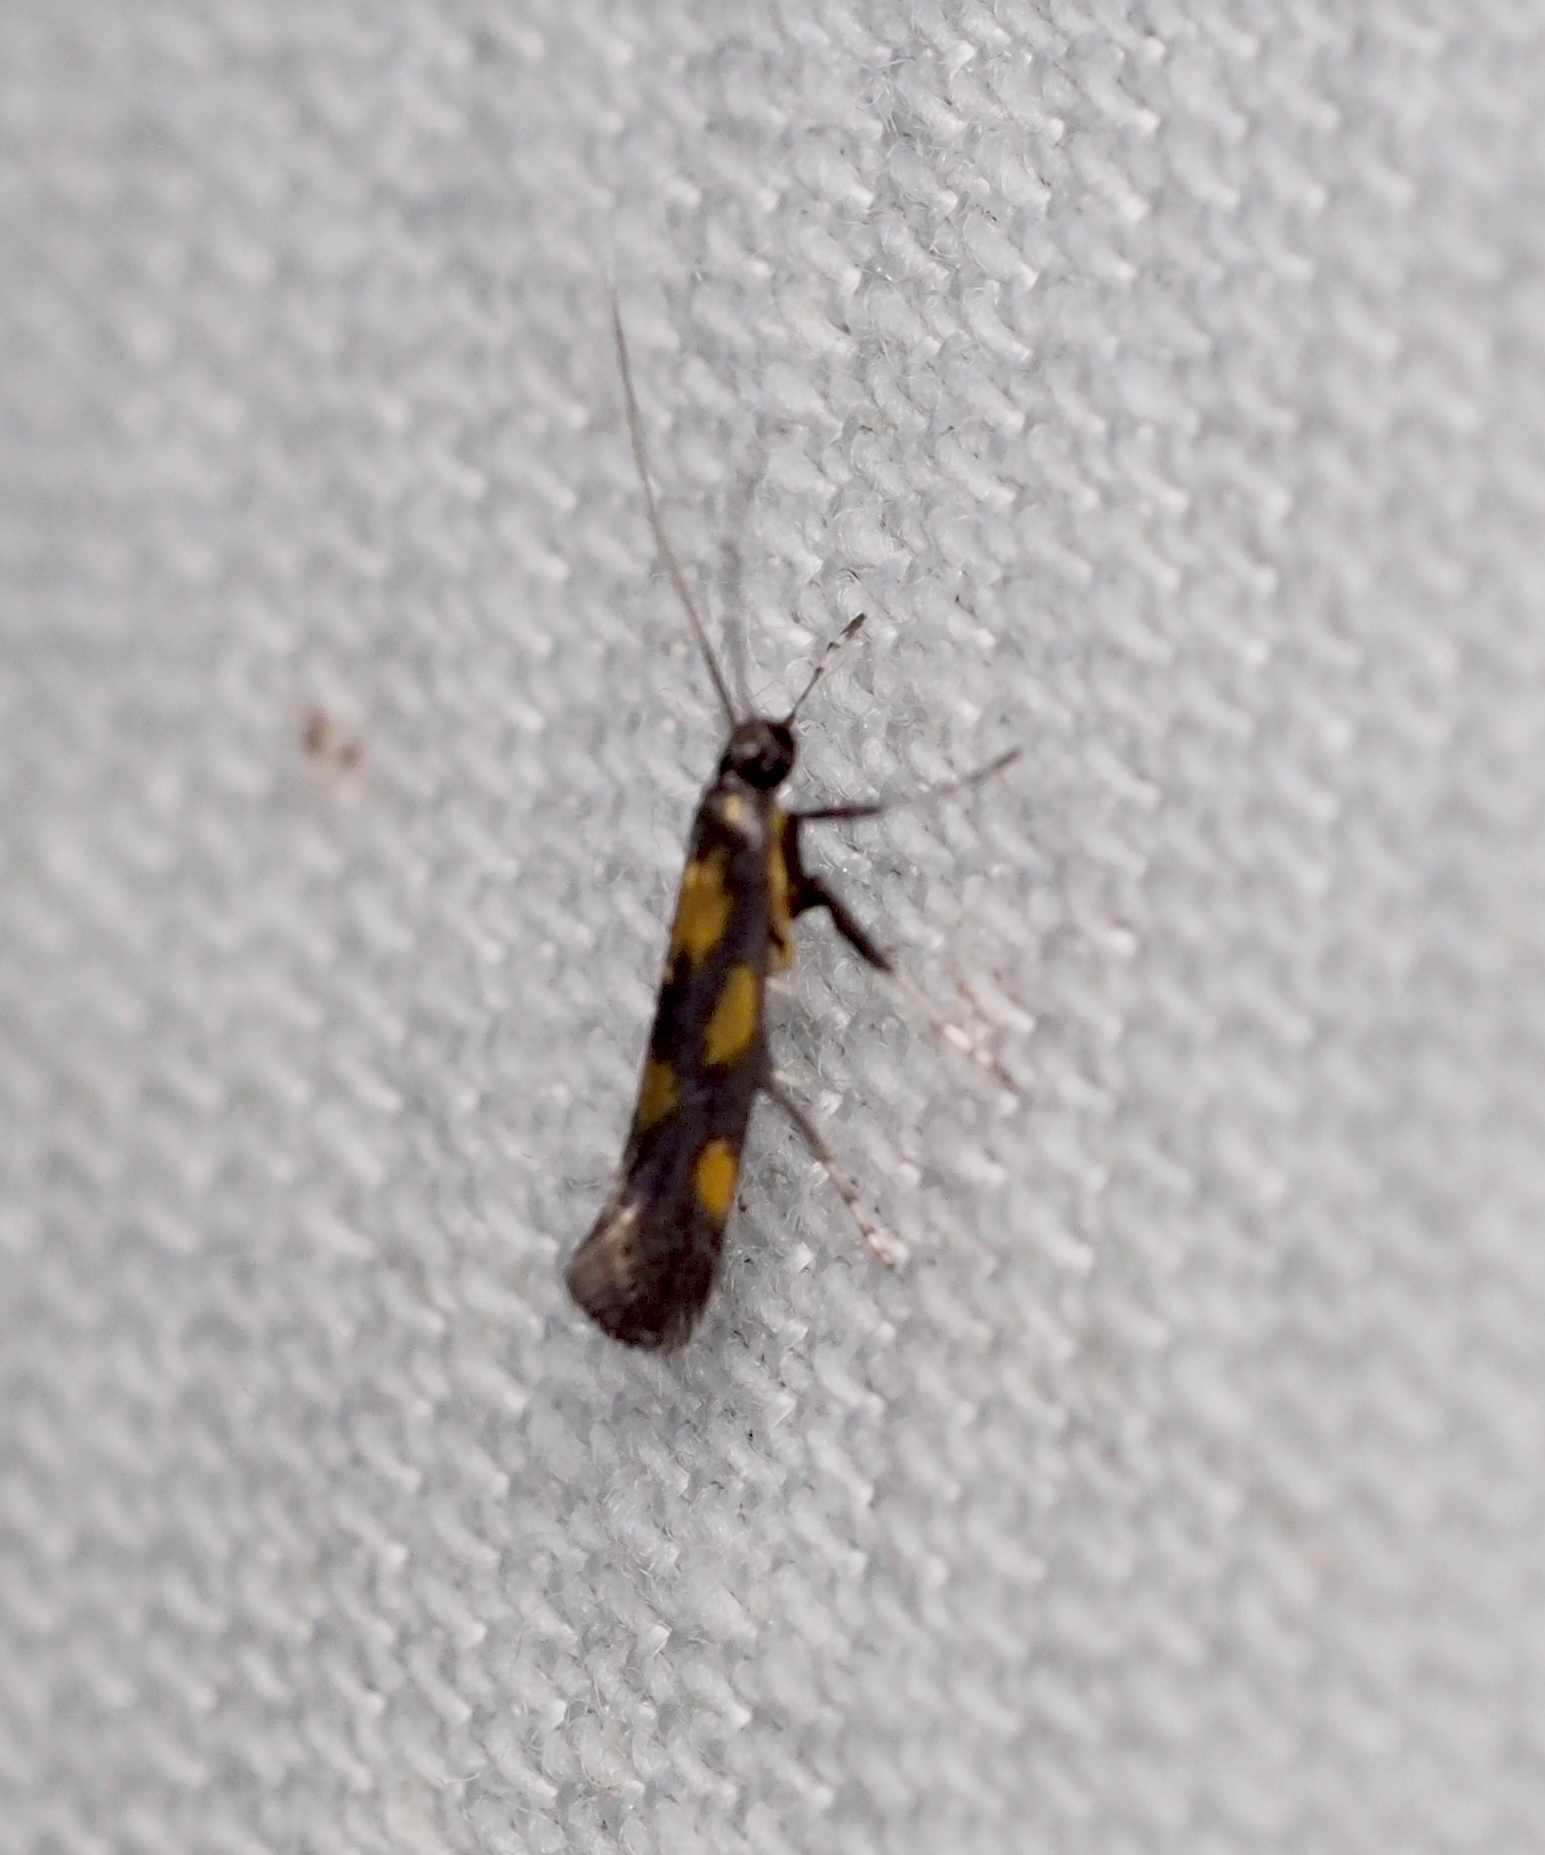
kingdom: Animalia
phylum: Arthropoda
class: Insecta
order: Lepidoptera
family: Gracillariidae
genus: Euspilapteryx
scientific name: Euspilapteryx auroguttella
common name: Gold-dot slender
